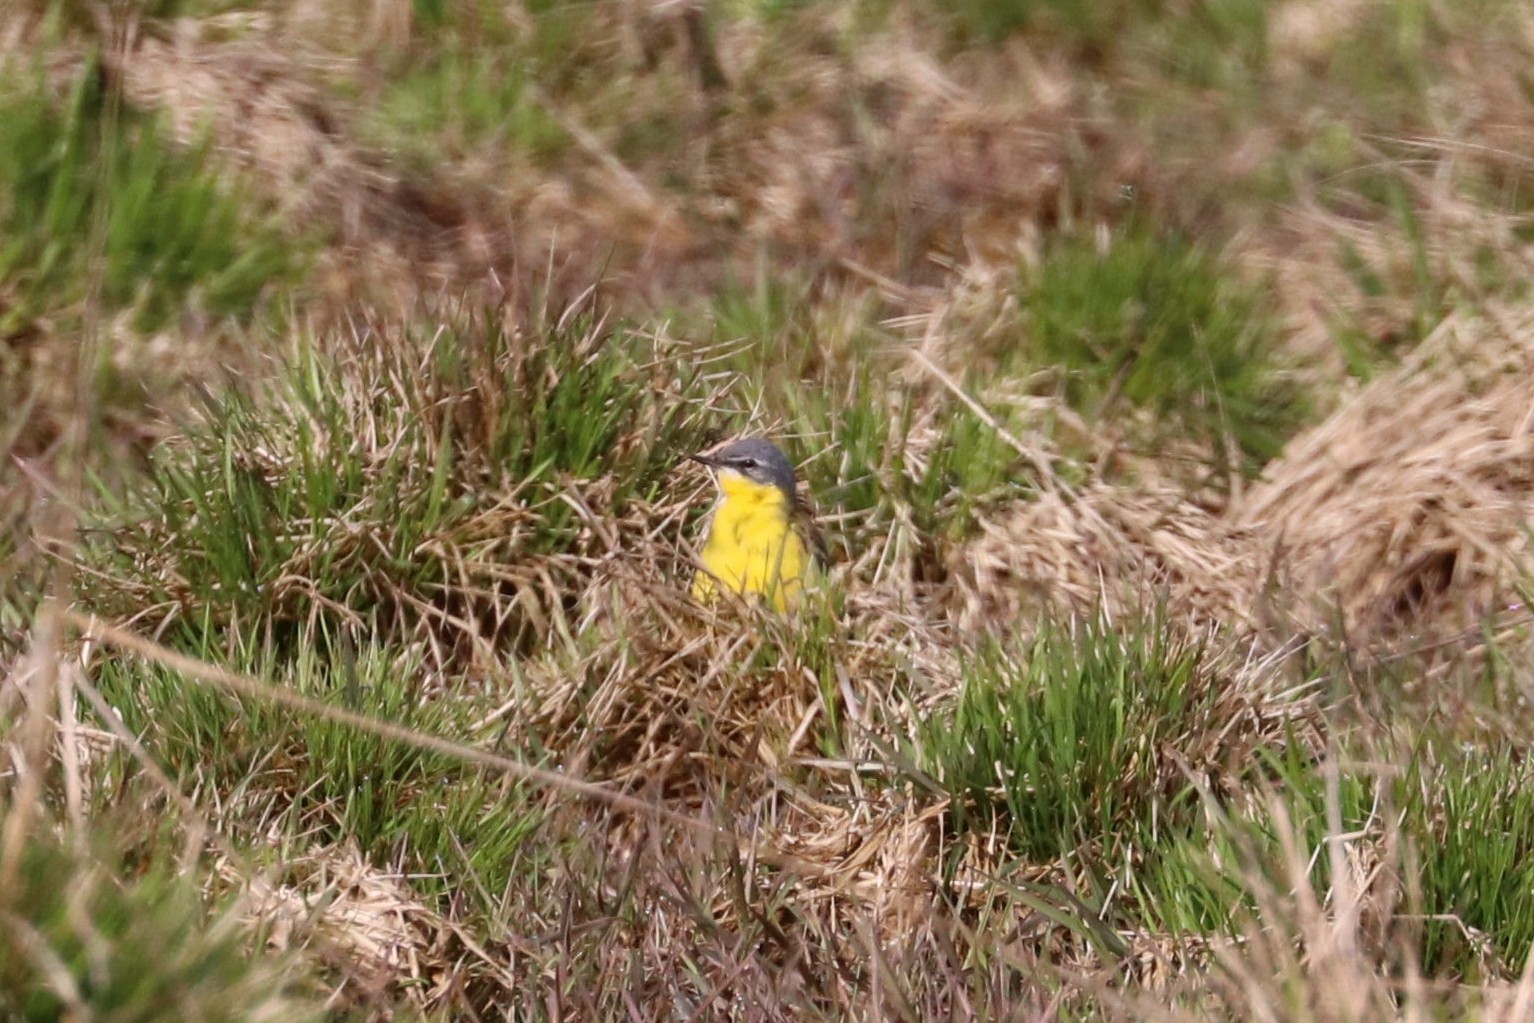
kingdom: Animalia
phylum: Chordata
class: Aves
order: Passeriformes
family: Motacillidae
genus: Motacilla
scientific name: Motacilla flava
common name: Western yellow wagtail
